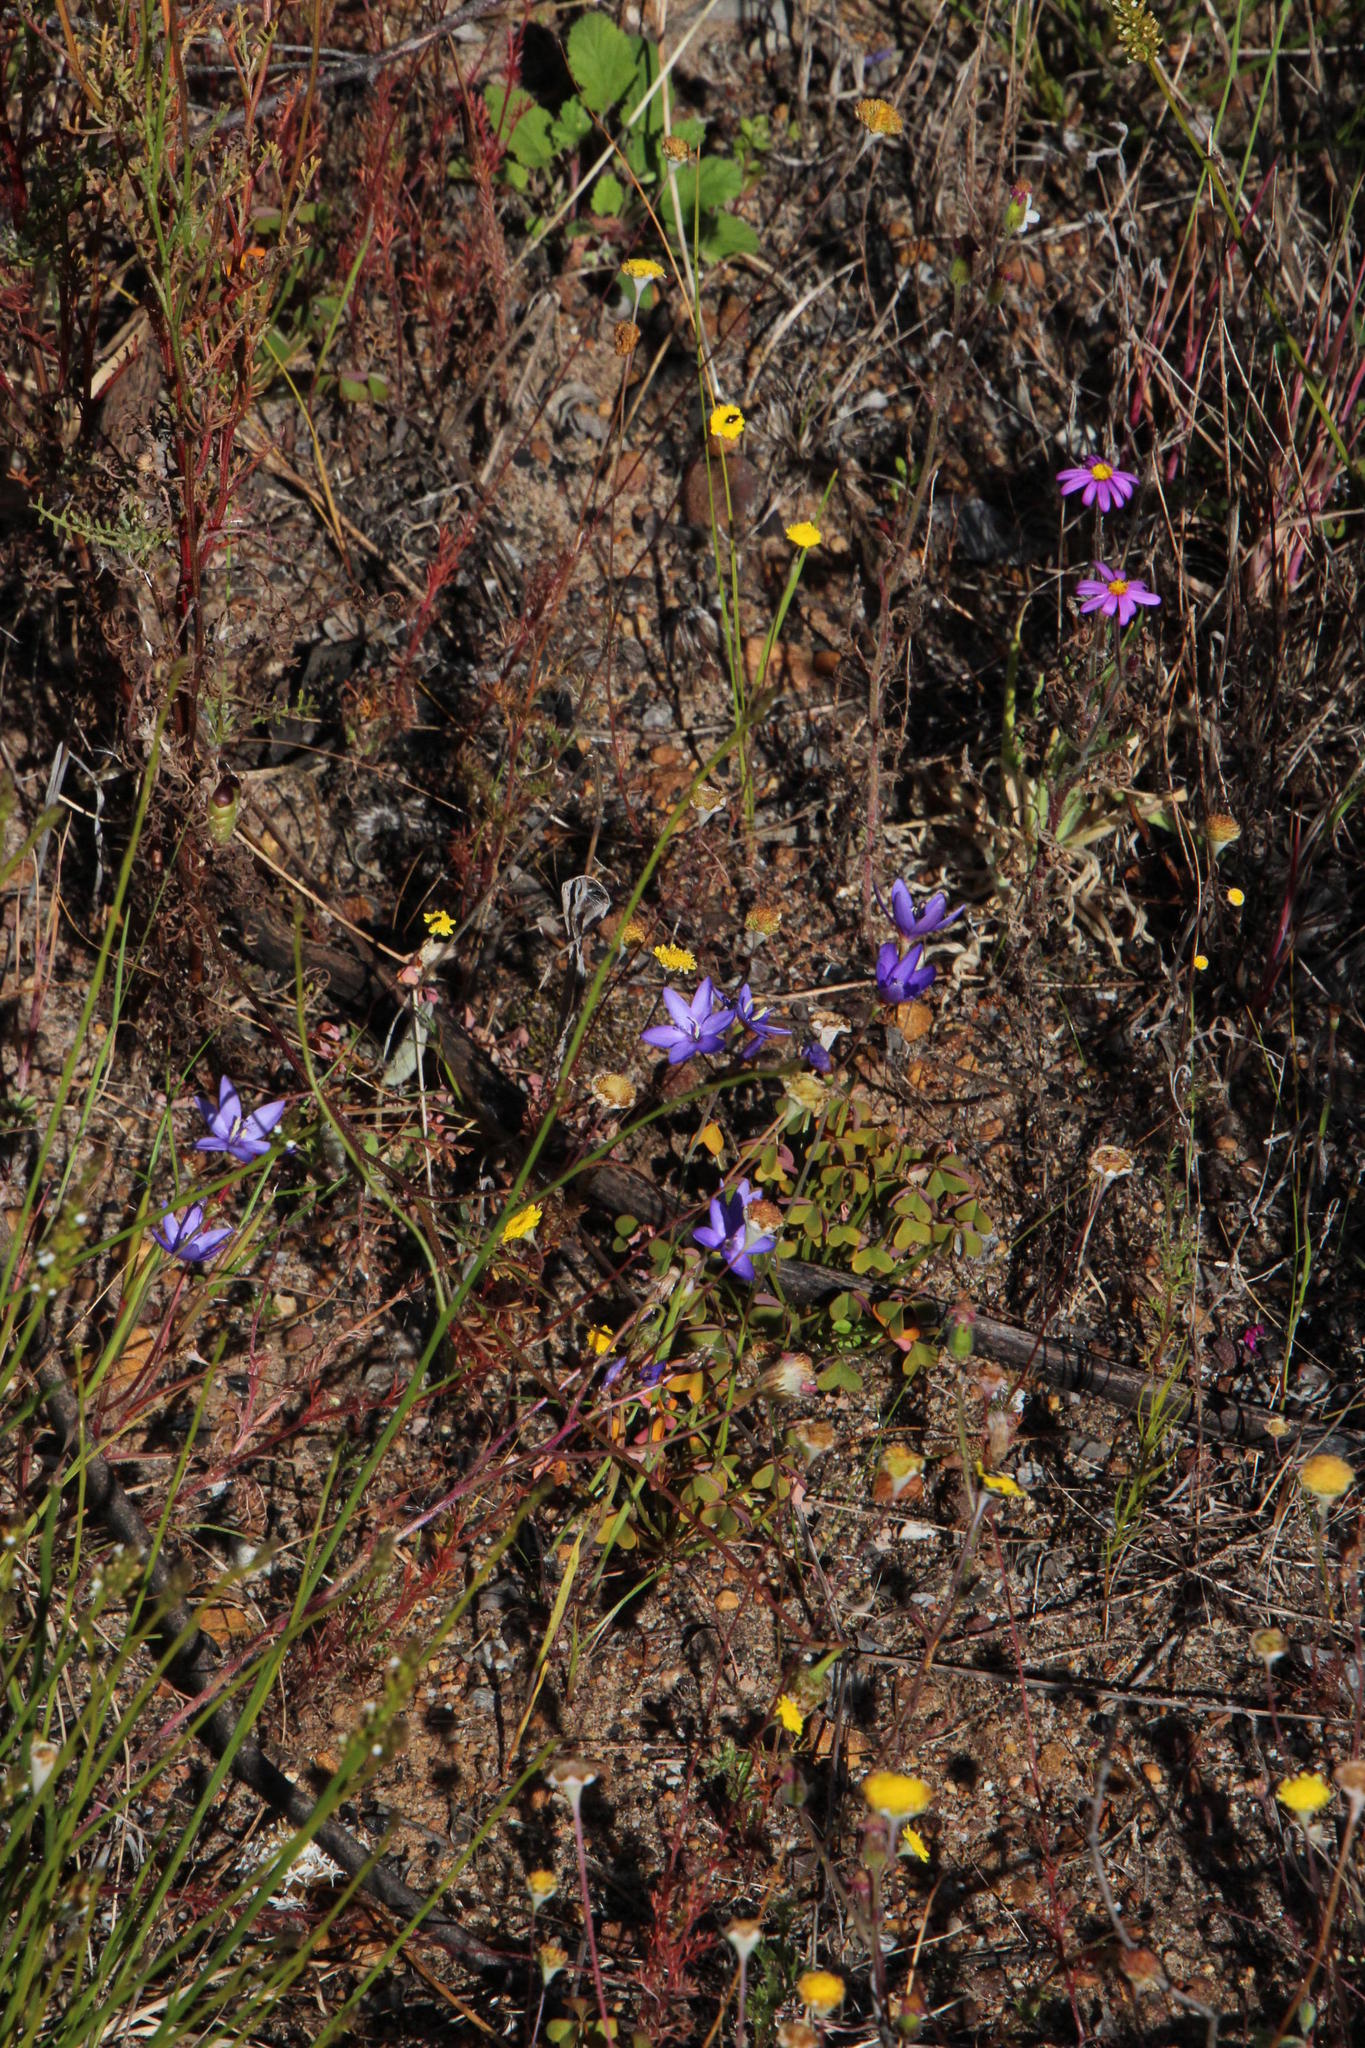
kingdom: Plantae
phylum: Tracheophyta
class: Liliopsida
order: Asparagales
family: Iridaceae
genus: Geissorhiza
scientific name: Geissorhiza aspera
